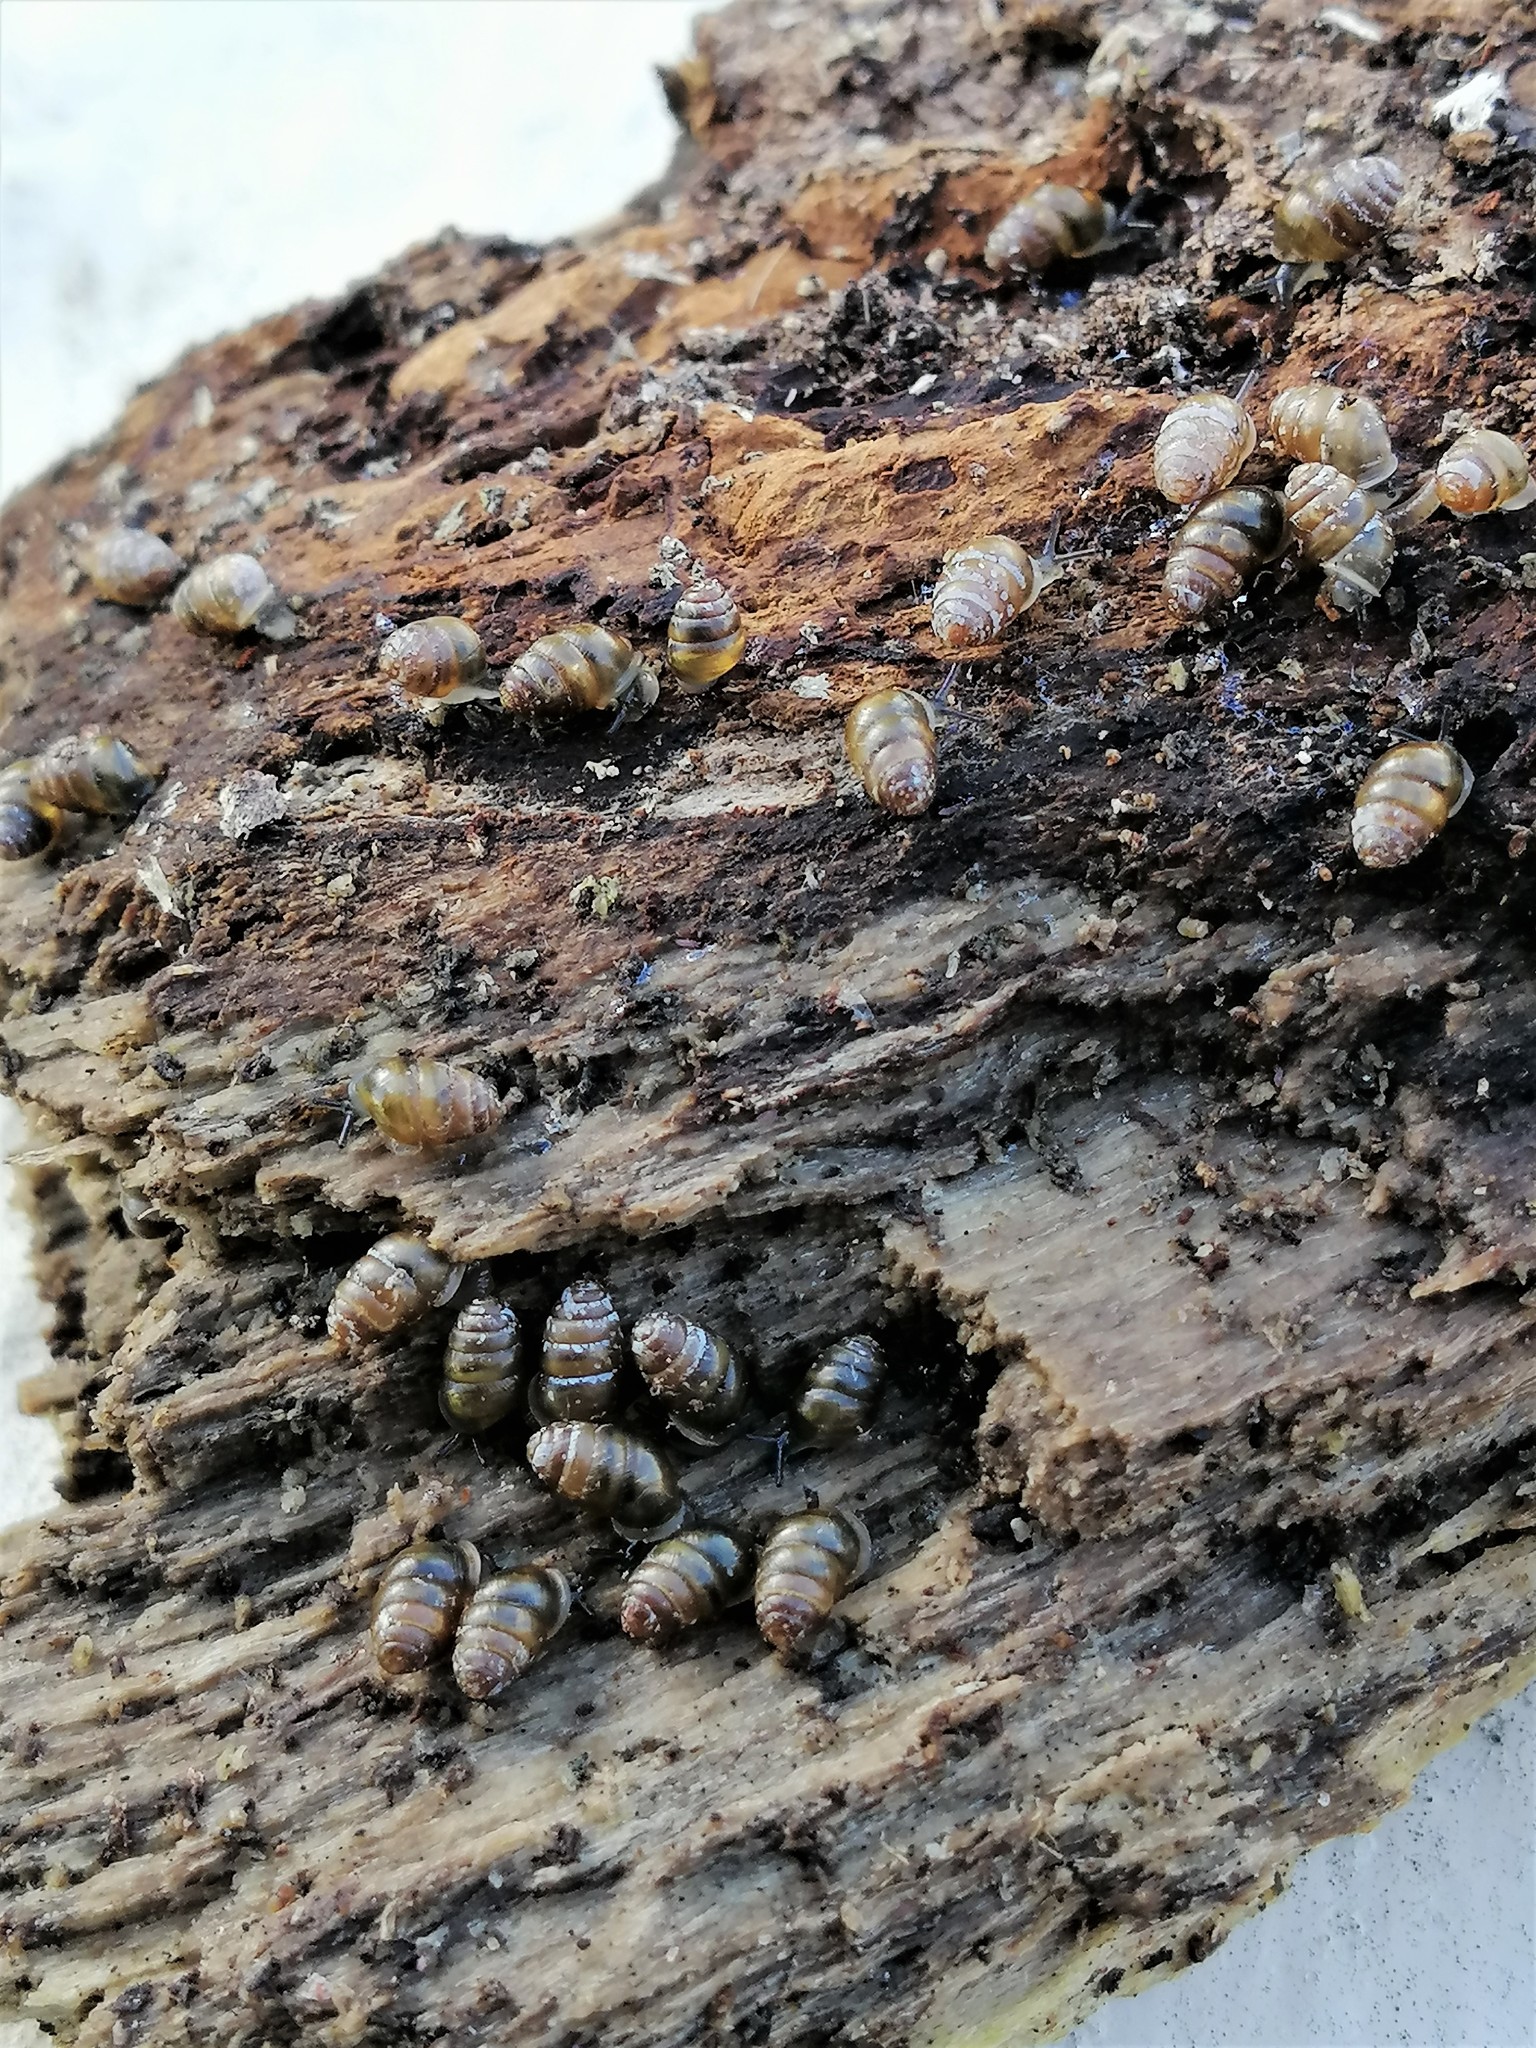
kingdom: Animalia
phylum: Mollusca
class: Gastropoda
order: Stylommatophora
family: Lauriidae
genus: Lauria
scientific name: Lauria cylindracea
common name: Common chrysalis snail
